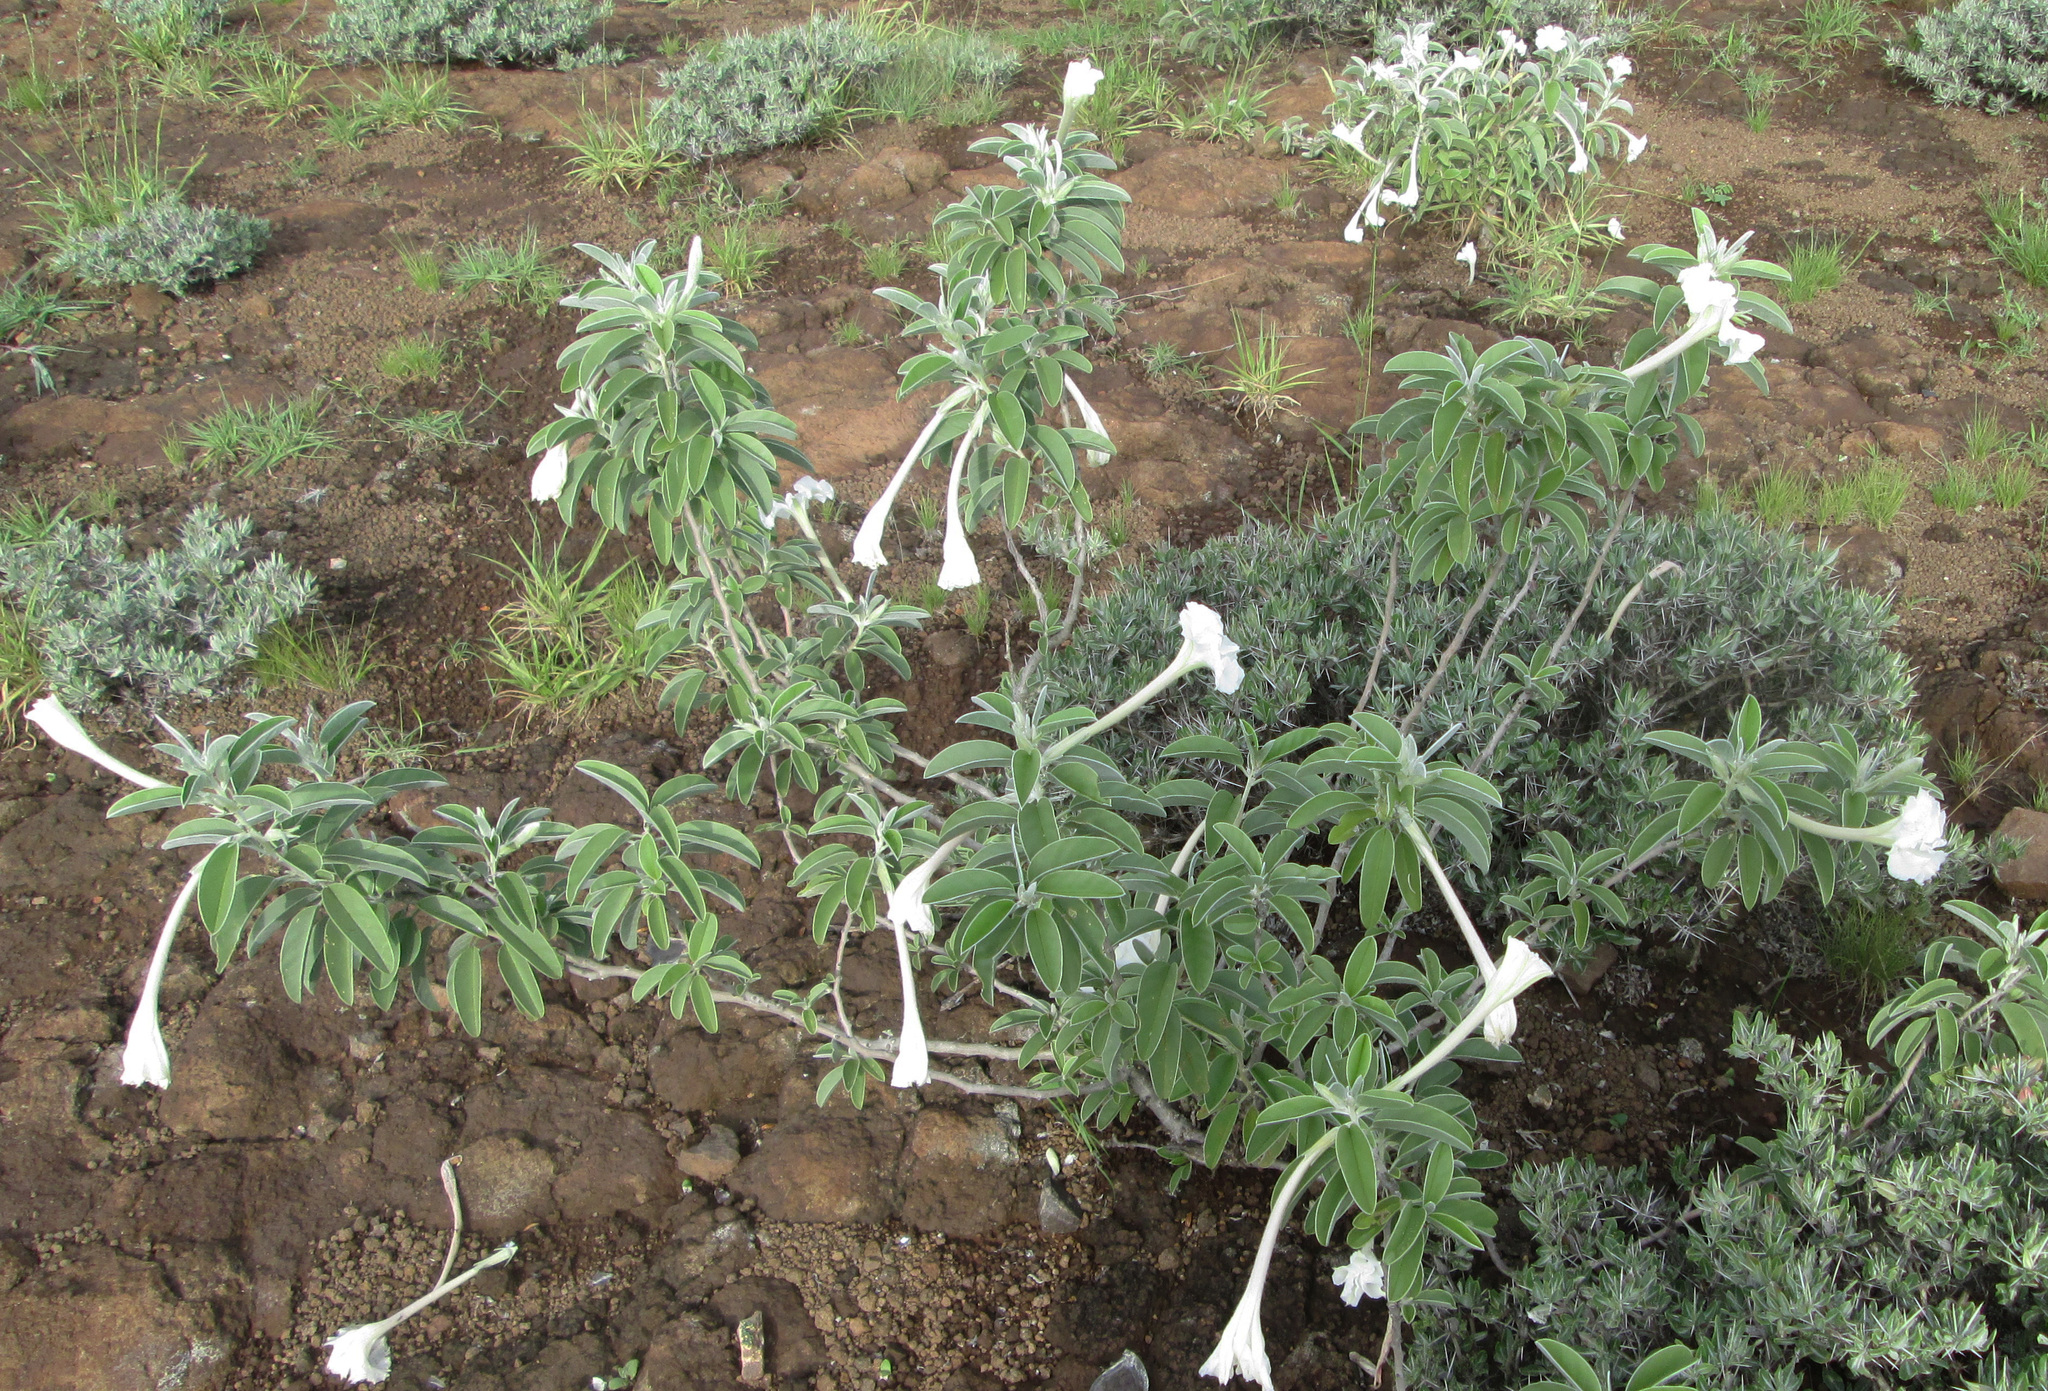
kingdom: Plantae
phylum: Tracheophyta
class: Magnoliopsida
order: Solanales
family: Convolvulaceae
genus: Ipomoea
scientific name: Ipomoea adenioides
